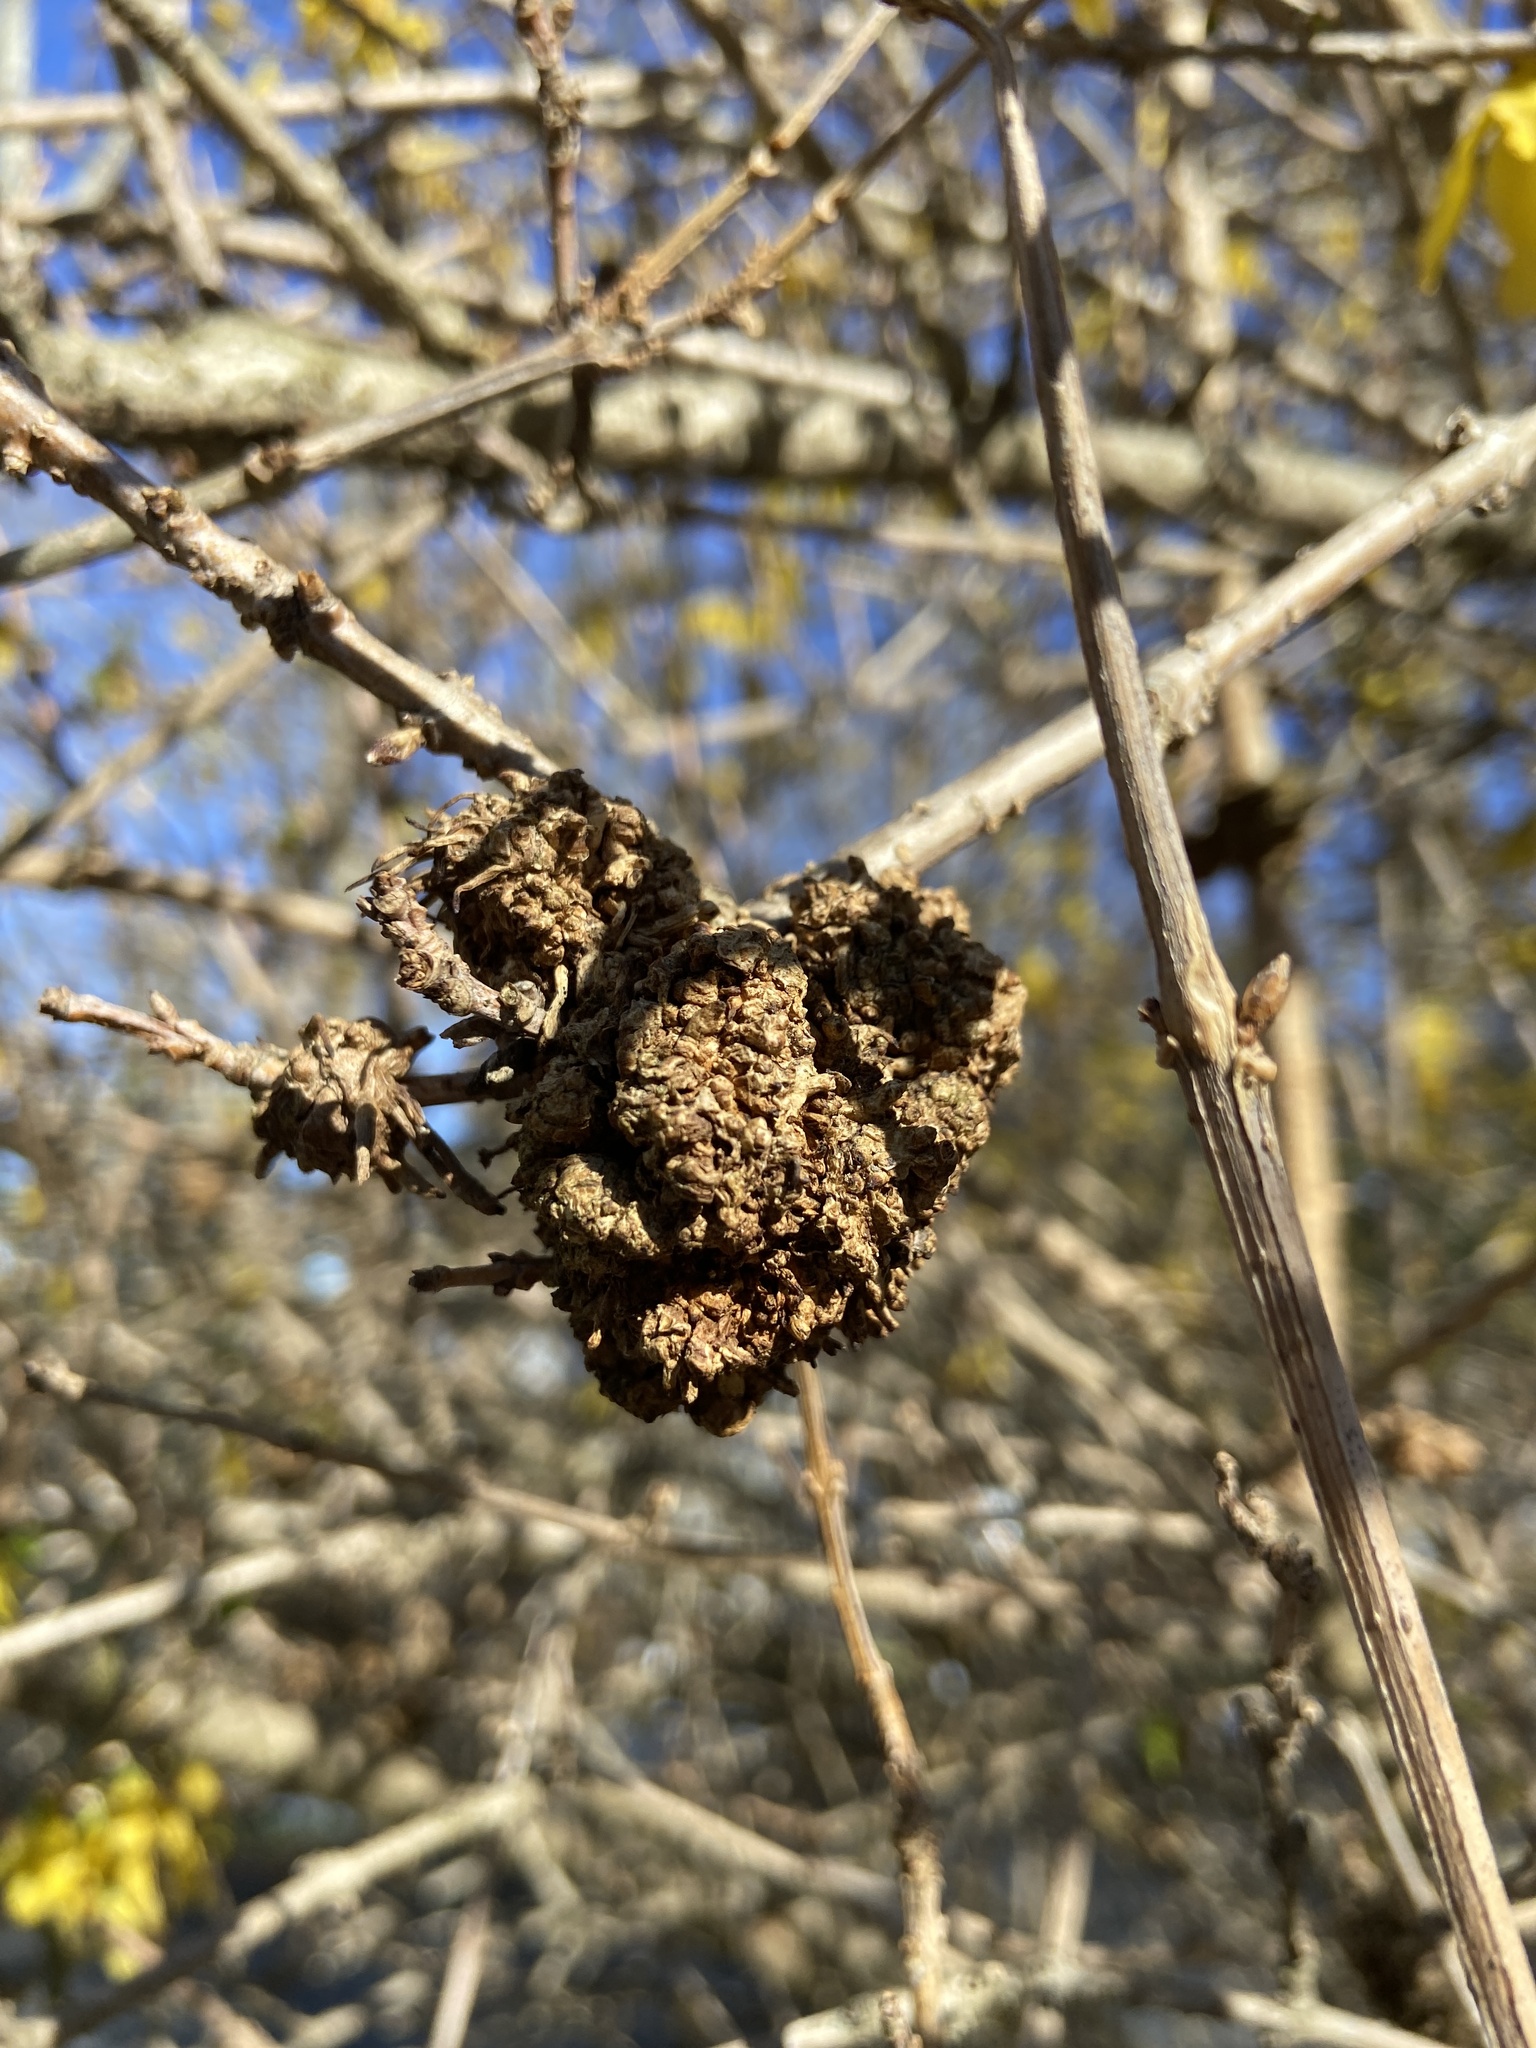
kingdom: Bacteria
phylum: Proteobacteria
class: Alphaproteobacteria
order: Rhizobiales
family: Rhizobiaceae
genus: Rhizobium
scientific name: Rhizobium Agrobacterium radiobacter
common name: Bacterial crown gall
